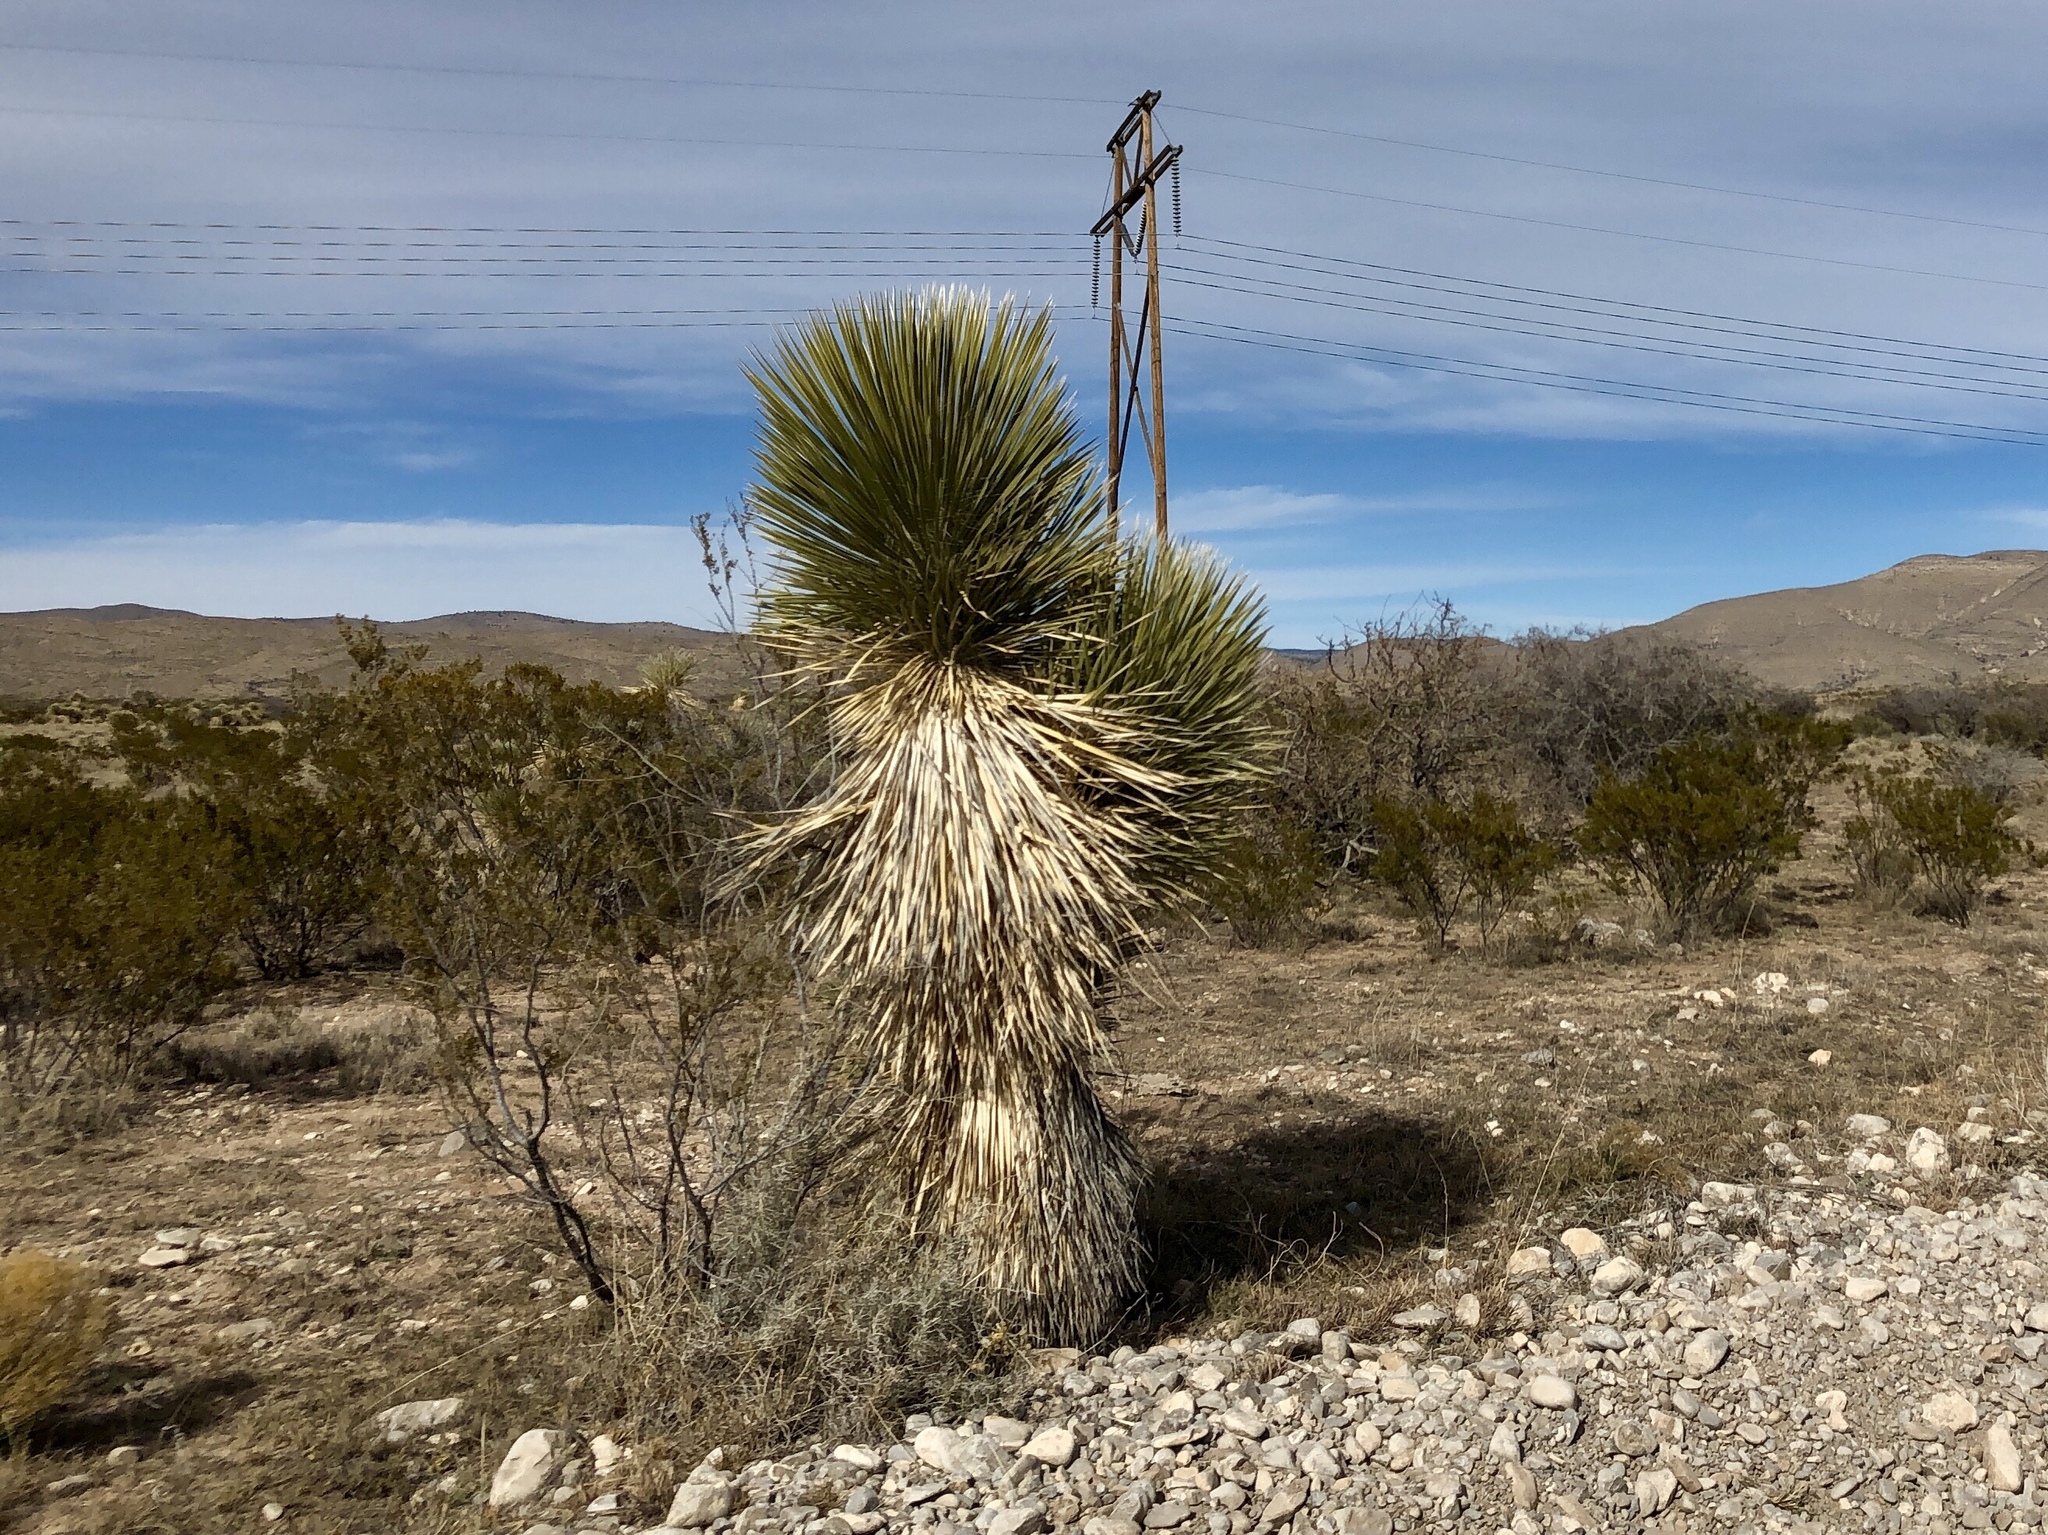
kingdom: Plantae
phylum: Tracheophyta
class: Liliopsida
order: Asparagales
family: Asparagaceae
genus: Yucca
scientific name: Yucca elata
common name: Palmella
